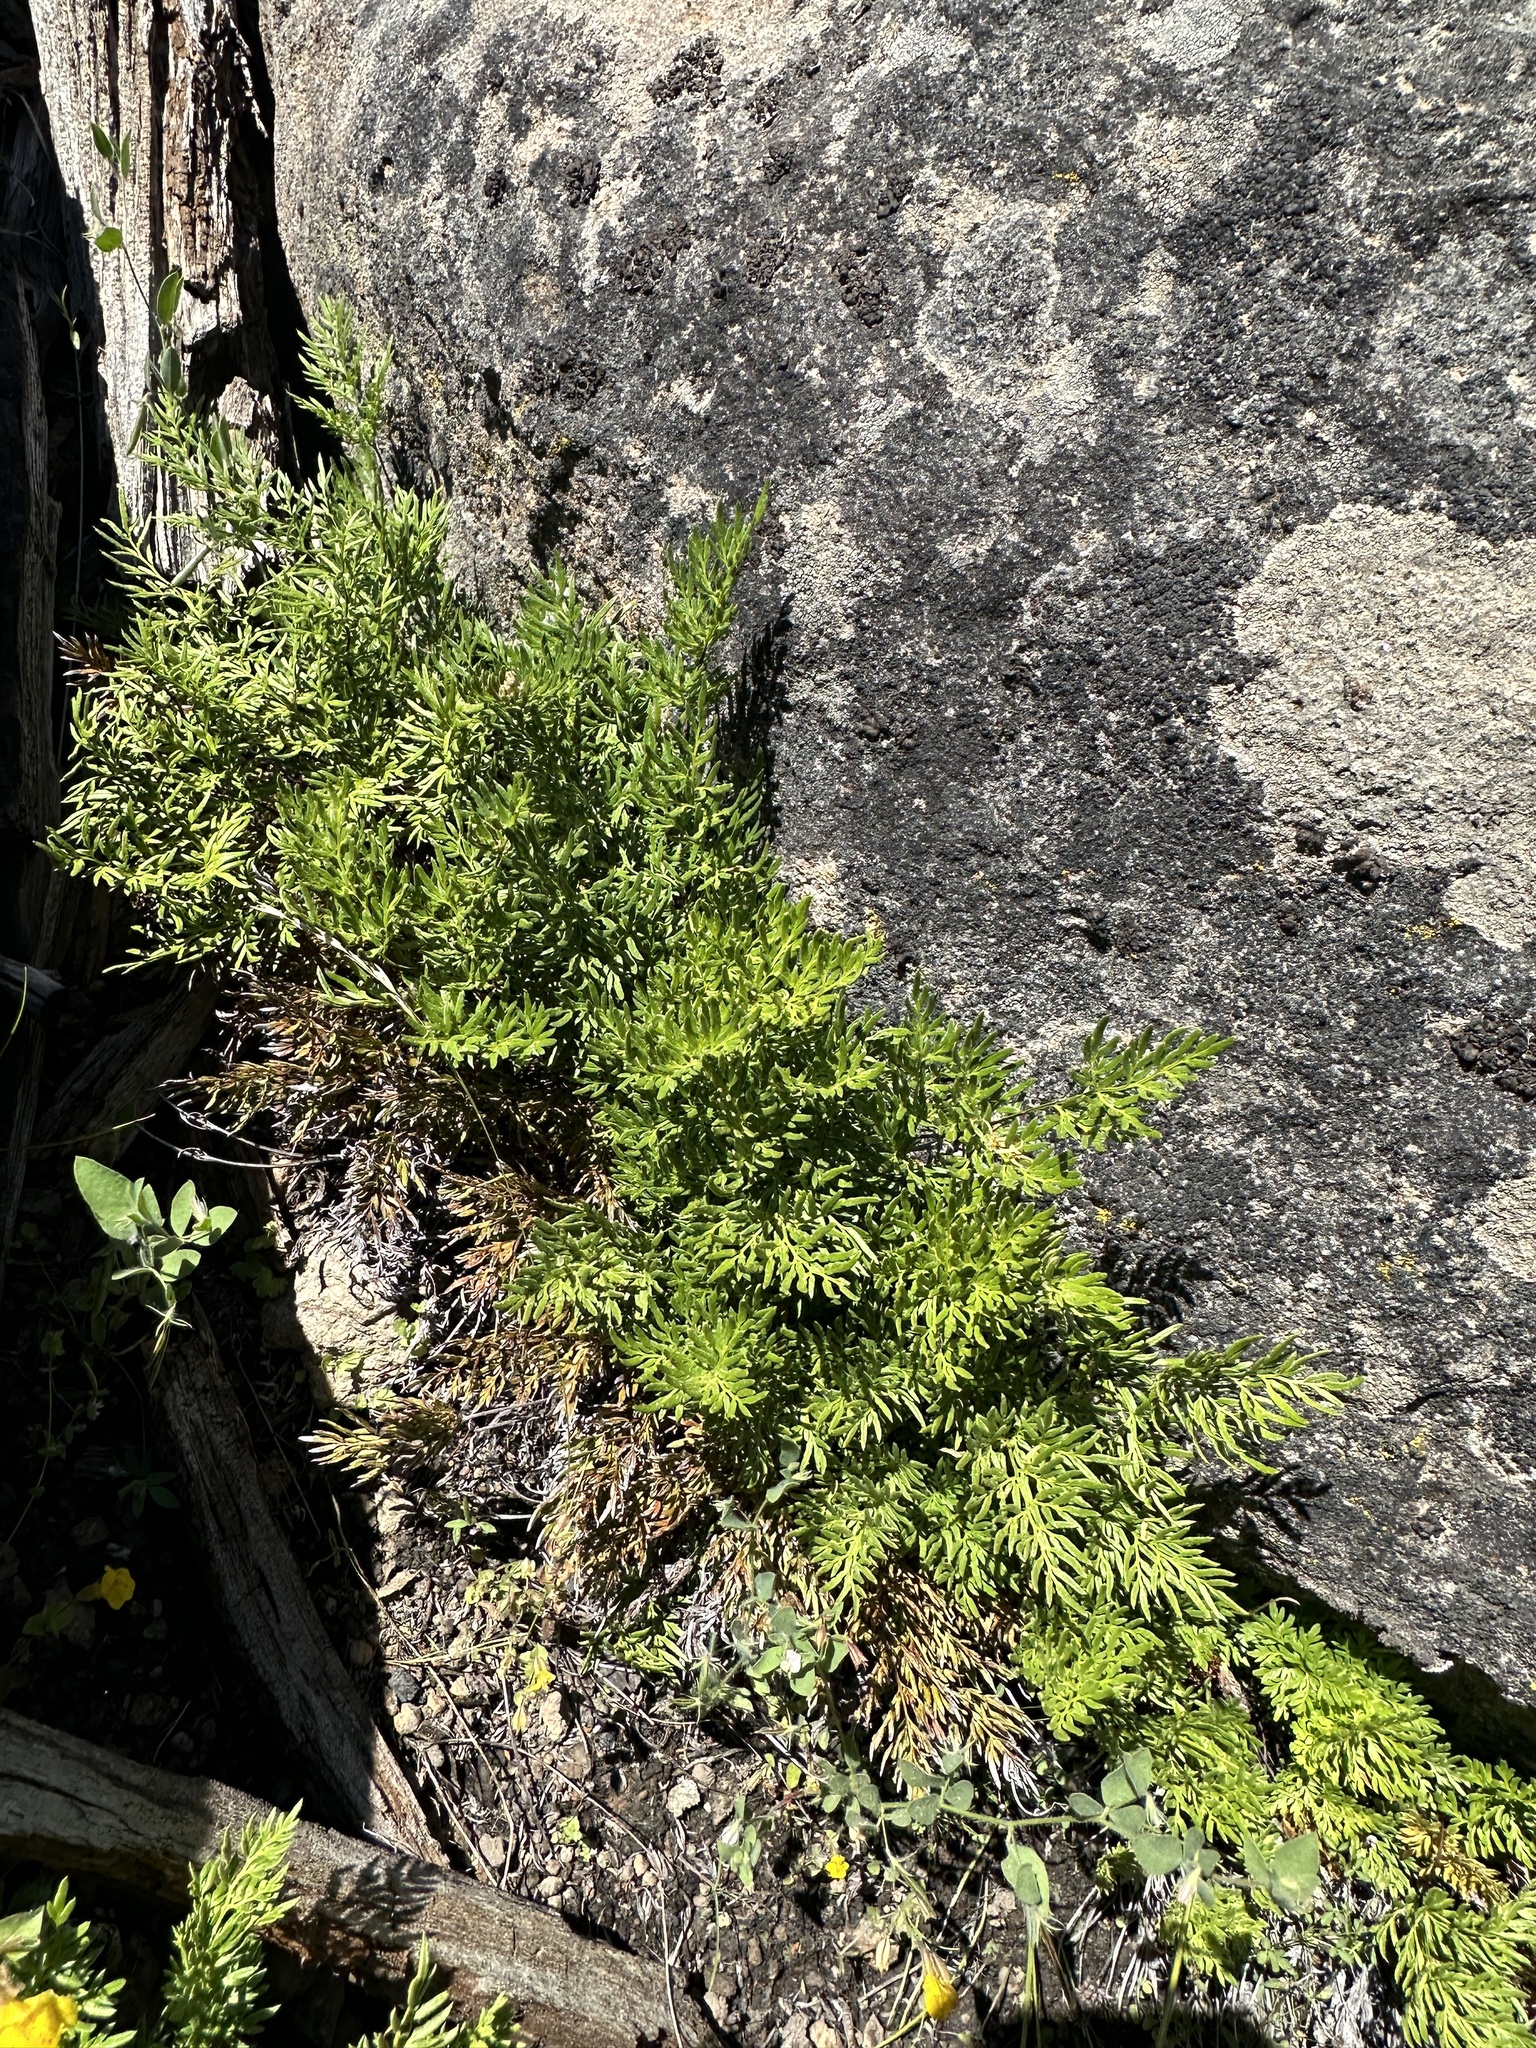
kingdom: Plantae
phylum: Tracheophyta
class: Polypodiopsida
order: Polypodiales
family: Pteridaceae
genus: Aspidotis
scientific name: Aspidotis densa
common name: Indian's dream
